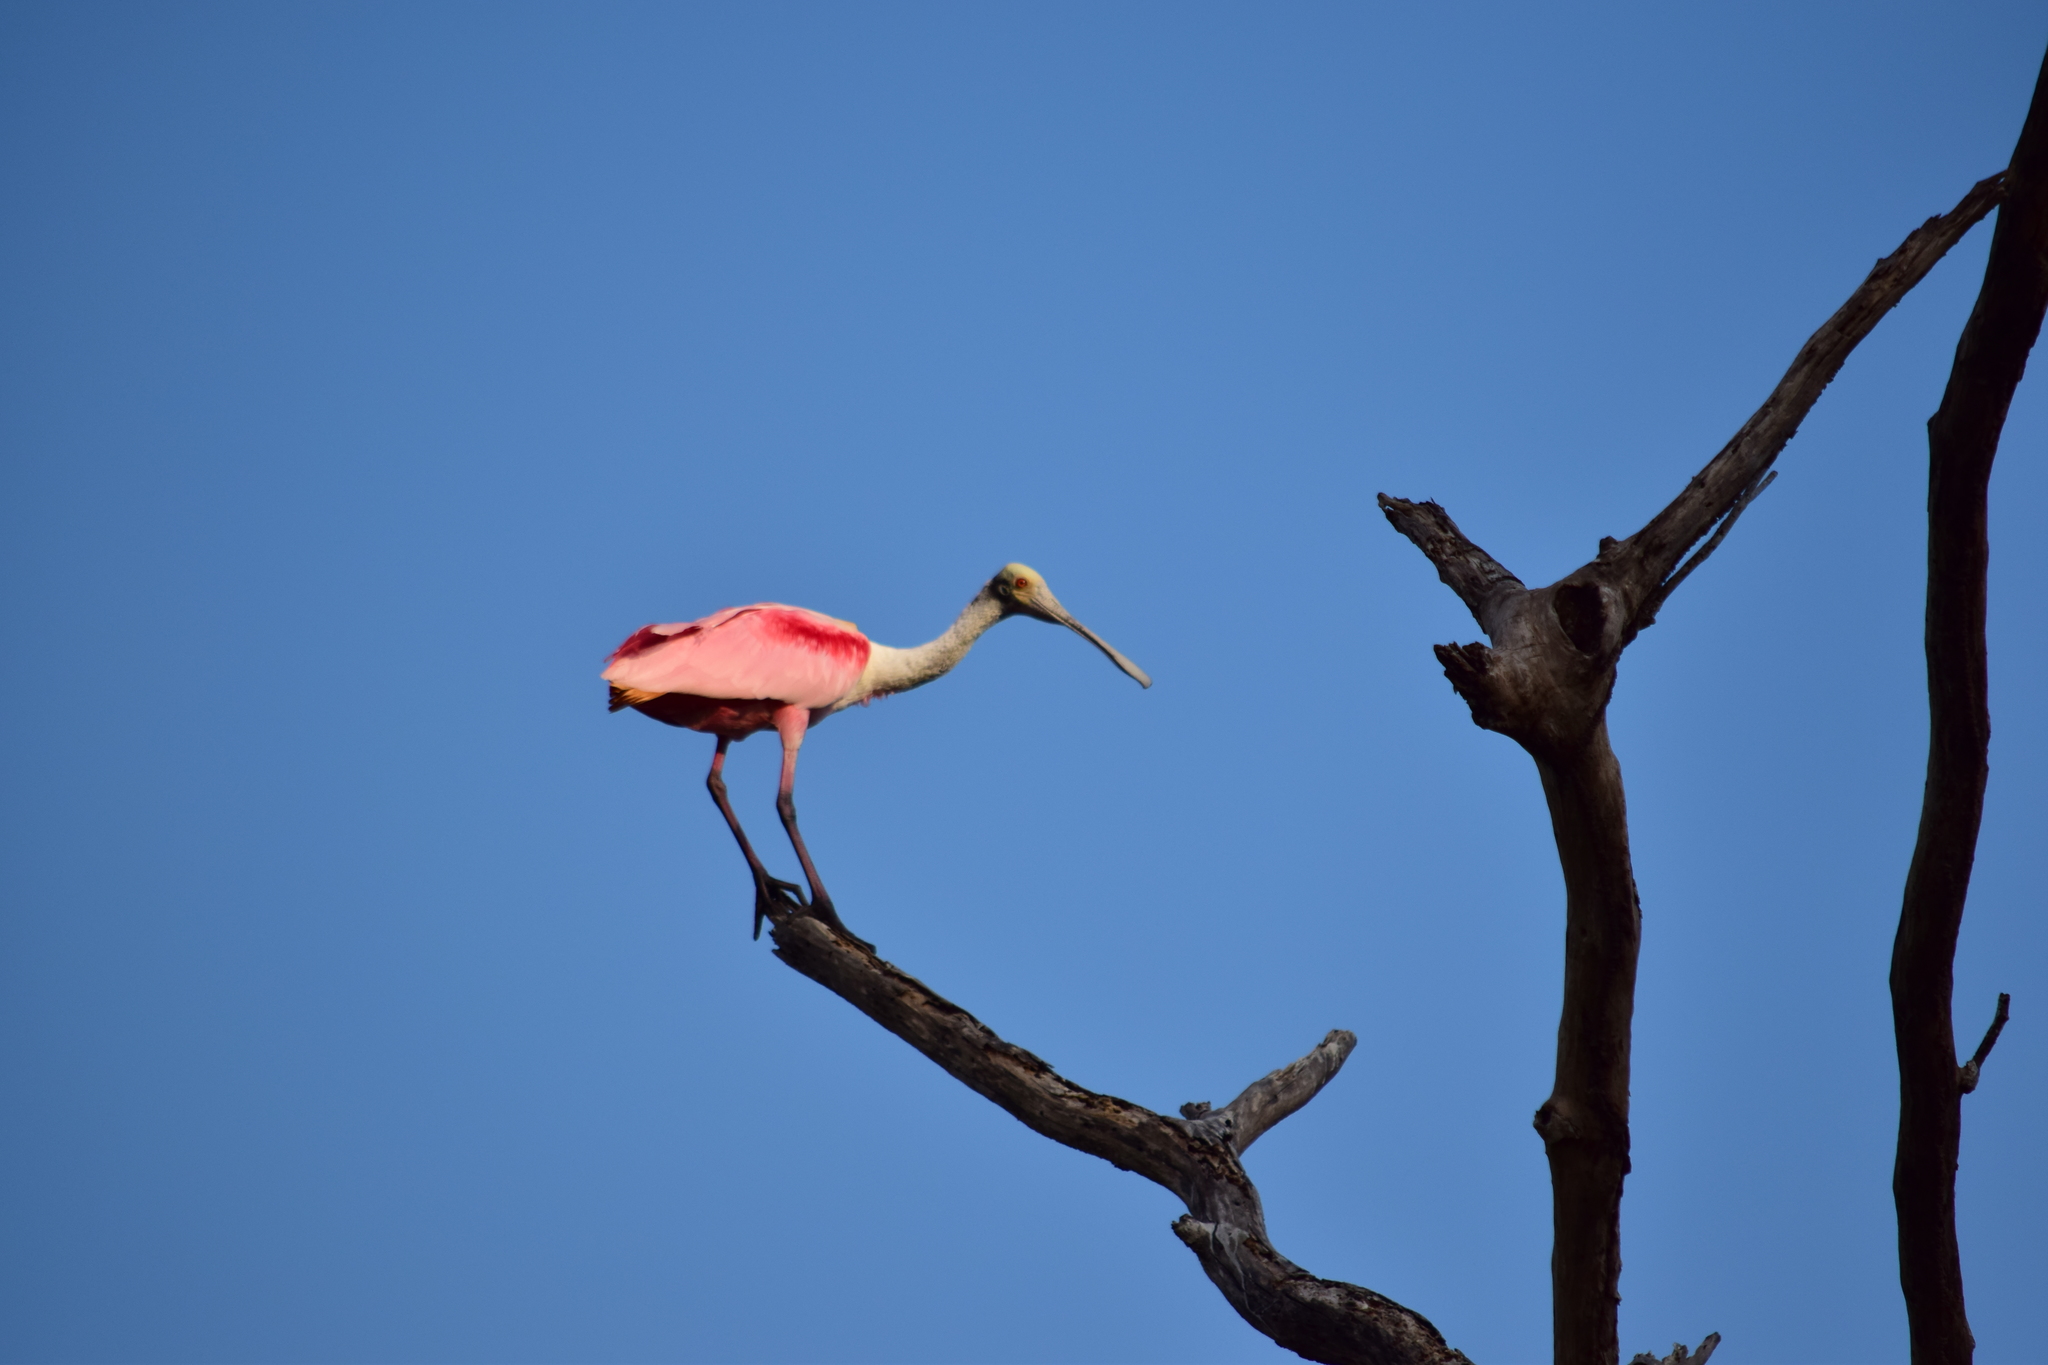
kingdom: Animalia
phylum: Chordata
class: Aves
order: Pelecaniformes
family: Threskiornithidae
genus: Platalea
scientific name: Platalea ajaja
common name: Roseate spoonbill
